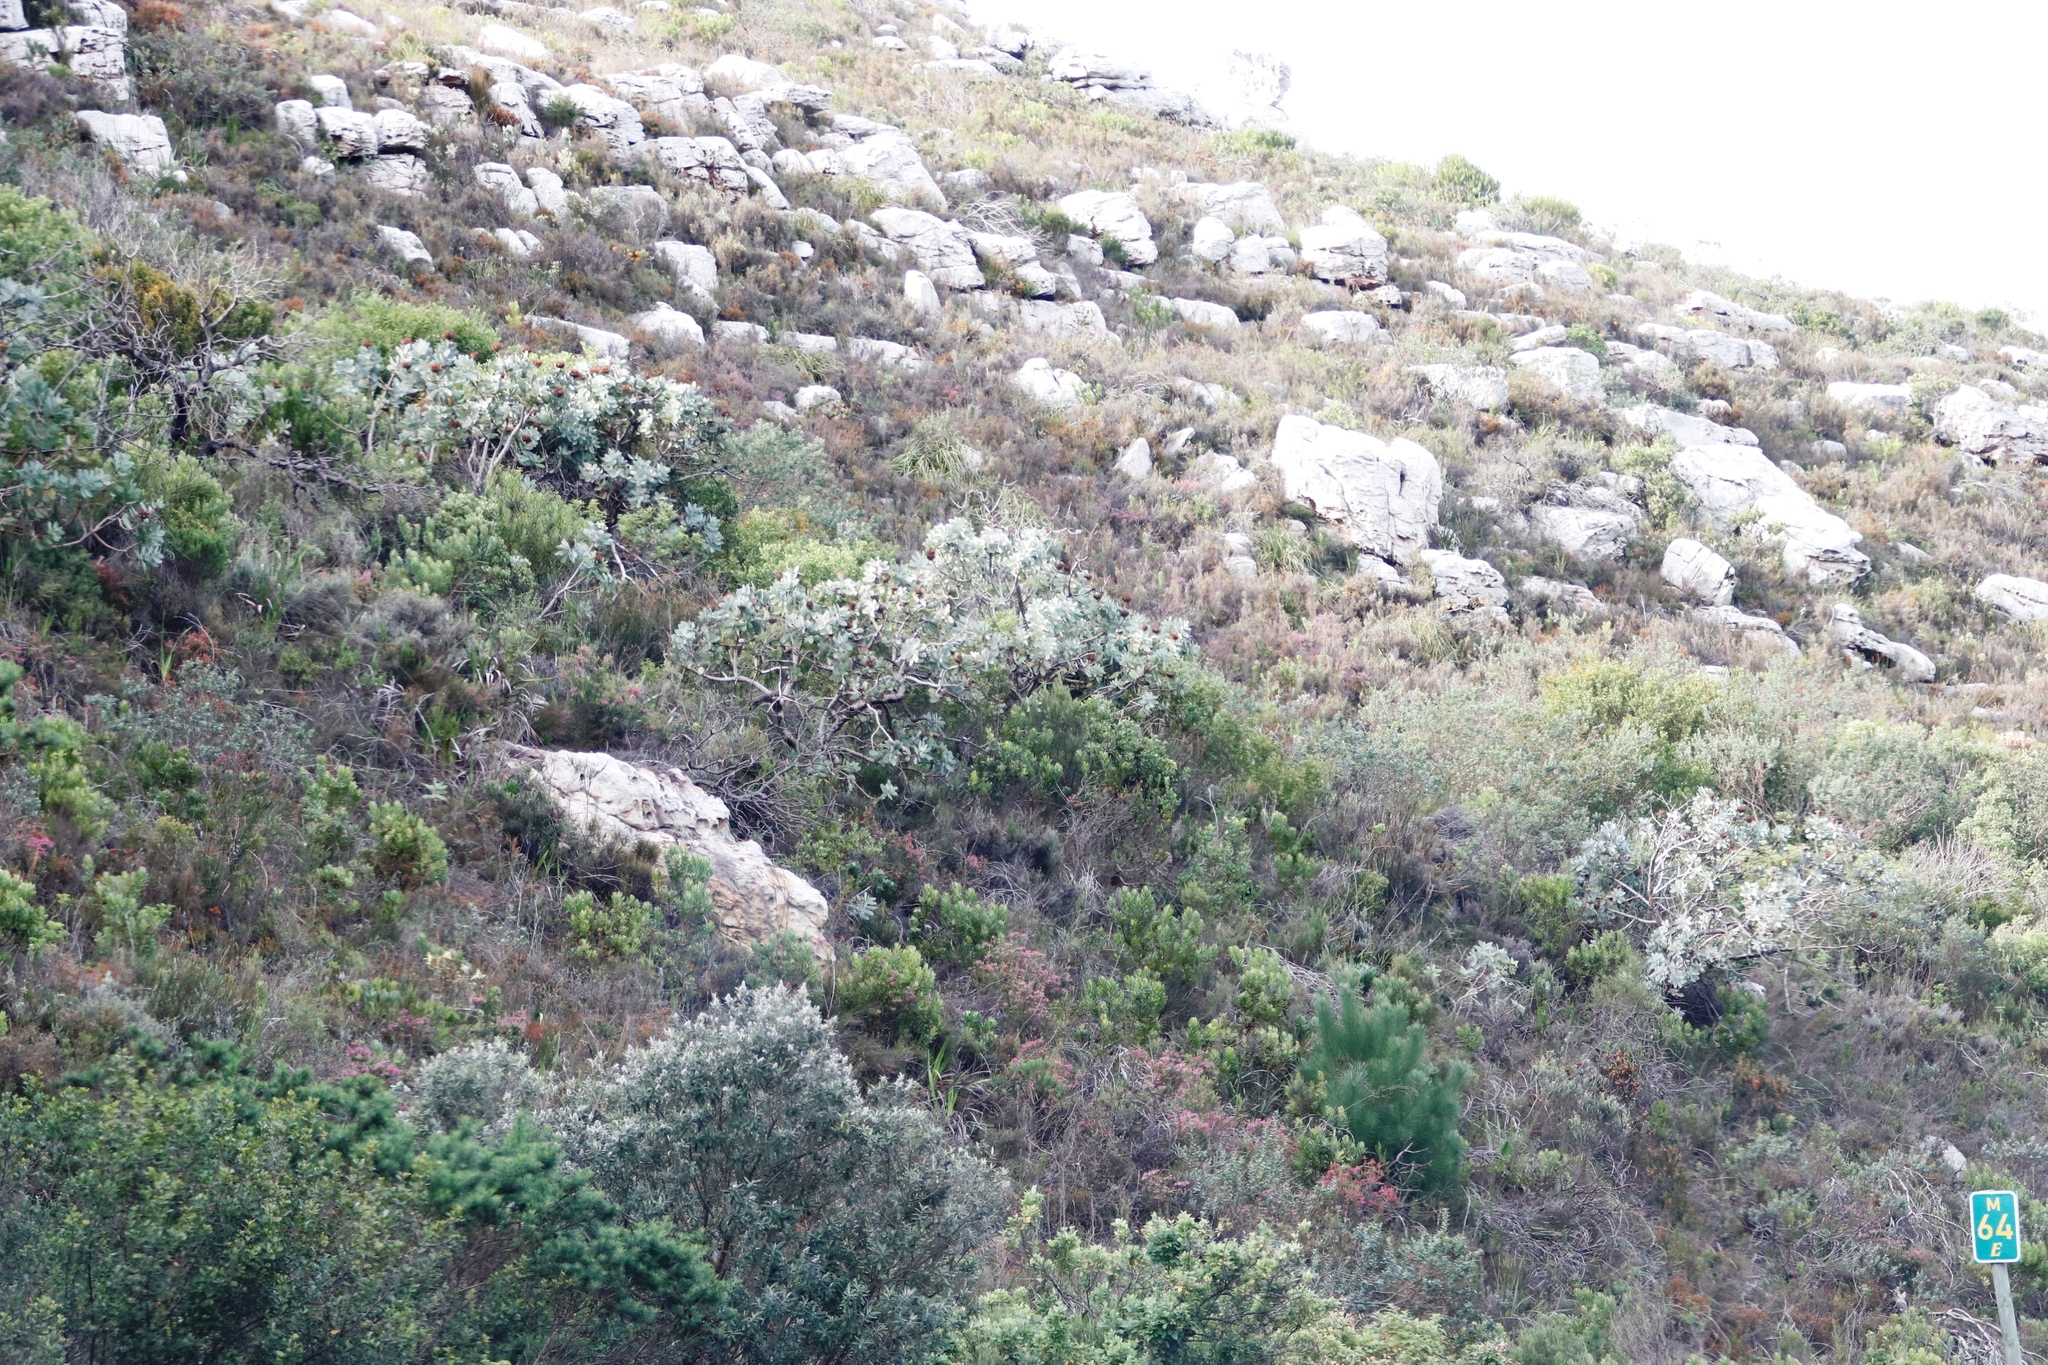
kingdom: Plantae
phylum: Tracheophyta
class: Magnoliopsida
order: Proteales
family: Proteaceae
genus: Protea
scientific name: Protea nitida
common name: Tree protea
